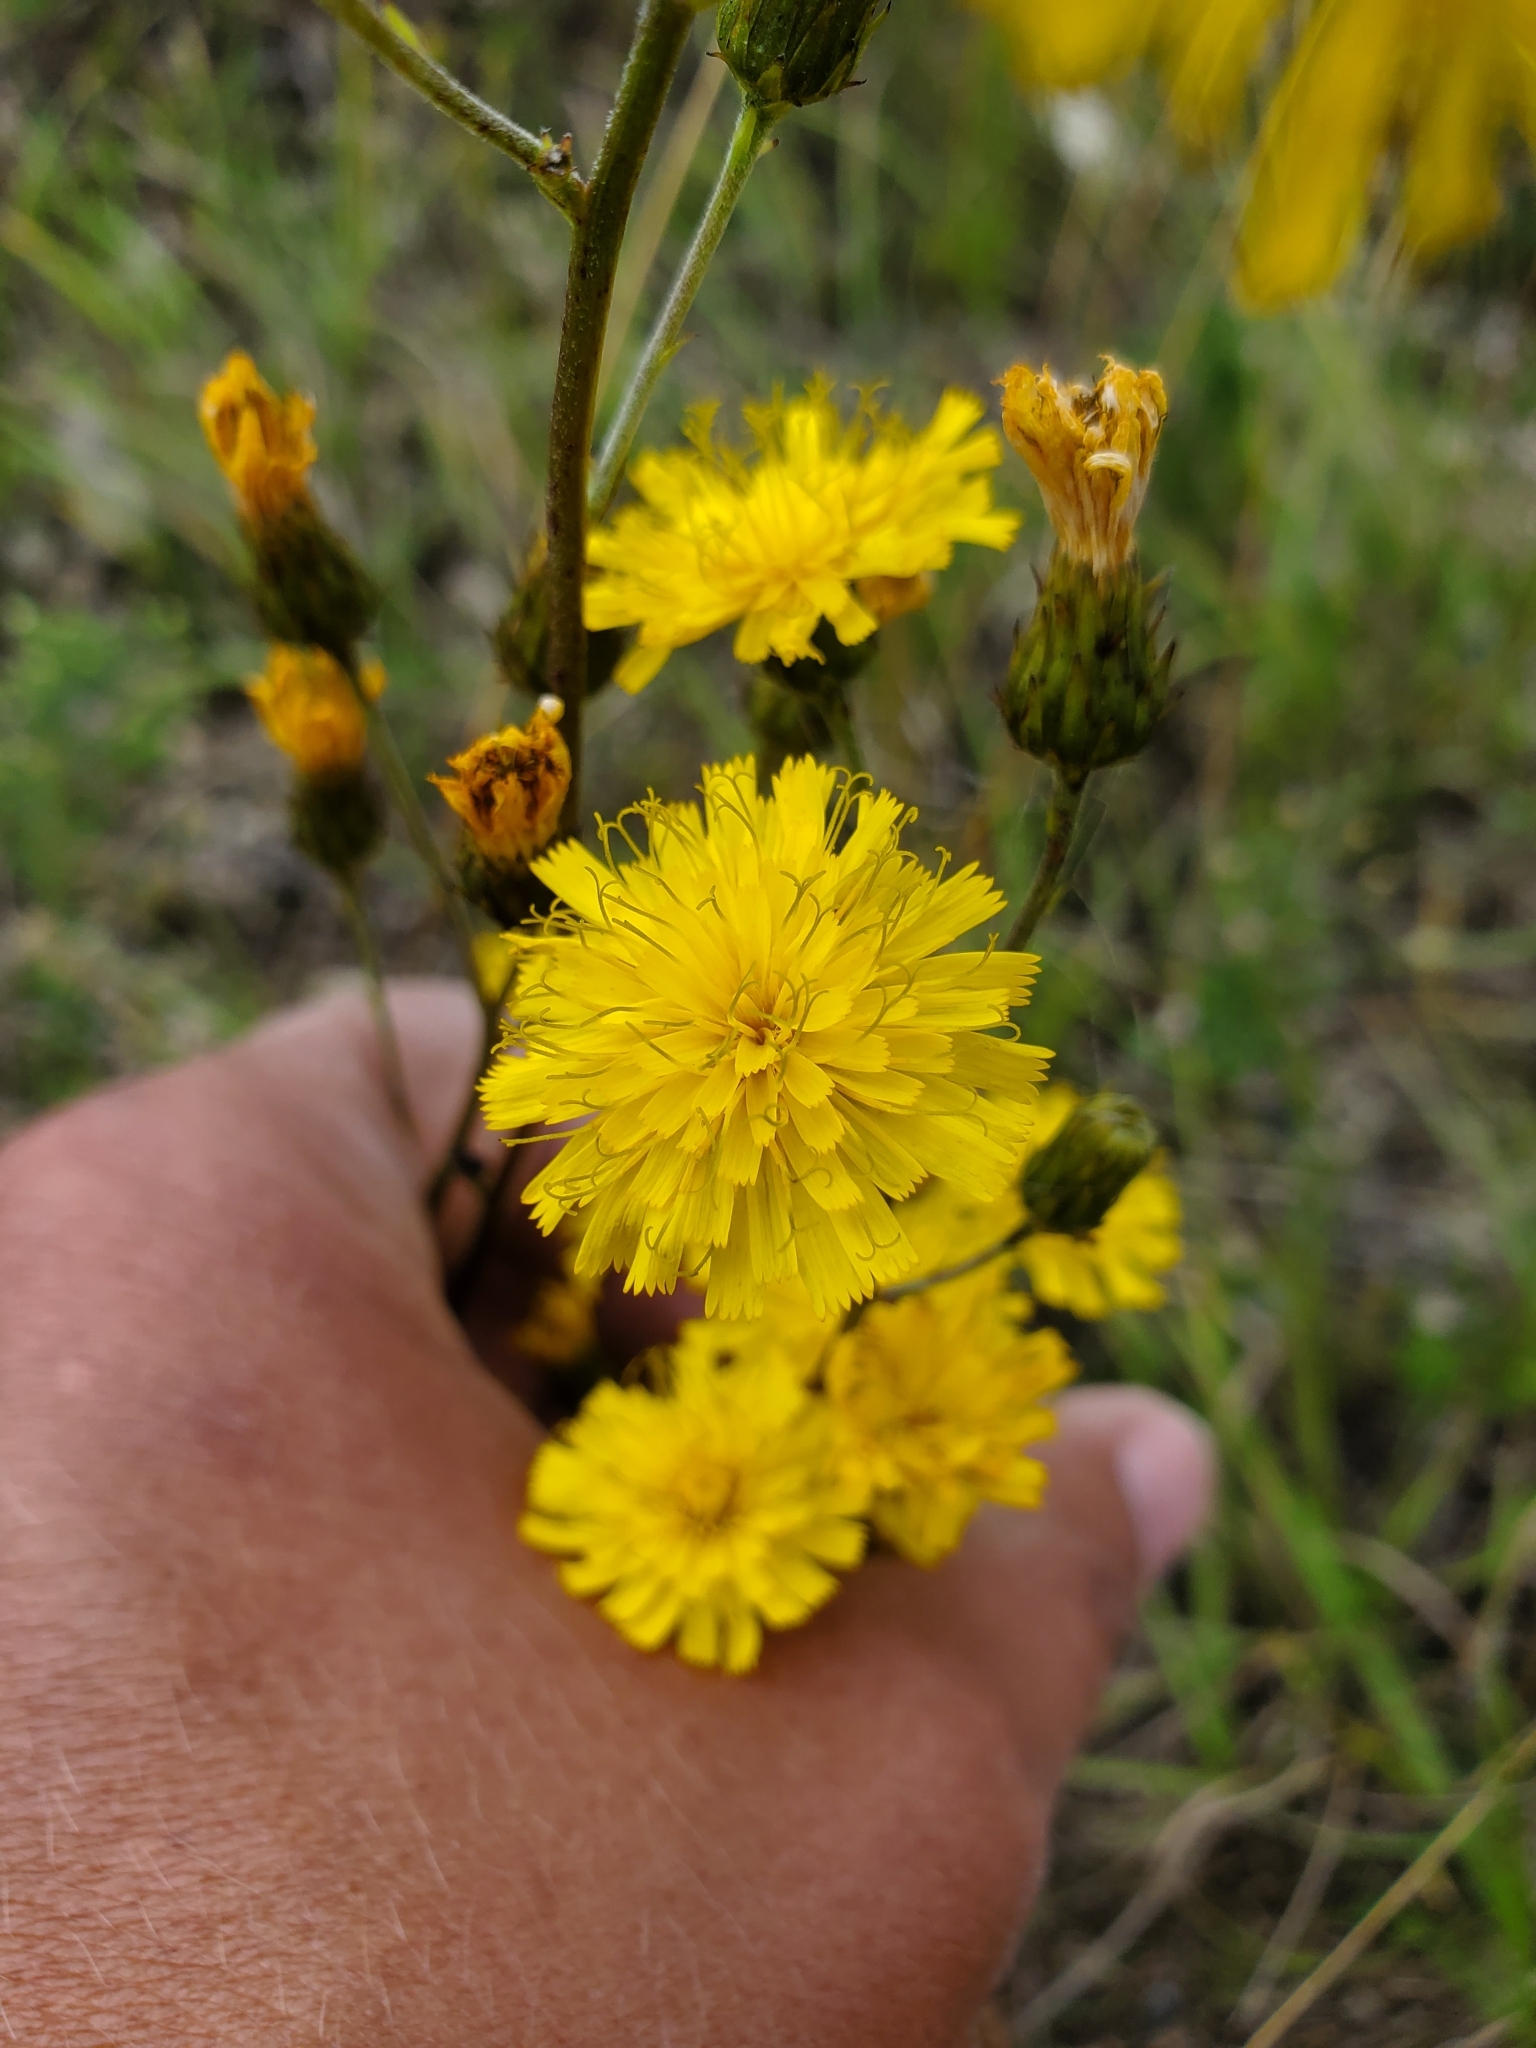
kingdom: Plantae
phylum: Tracheophyta
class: Magnoliopsida
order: Asterales
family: Asteraceae
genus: Hieracium
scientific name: Hieracium umbellatum
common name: Northern hawkweed
